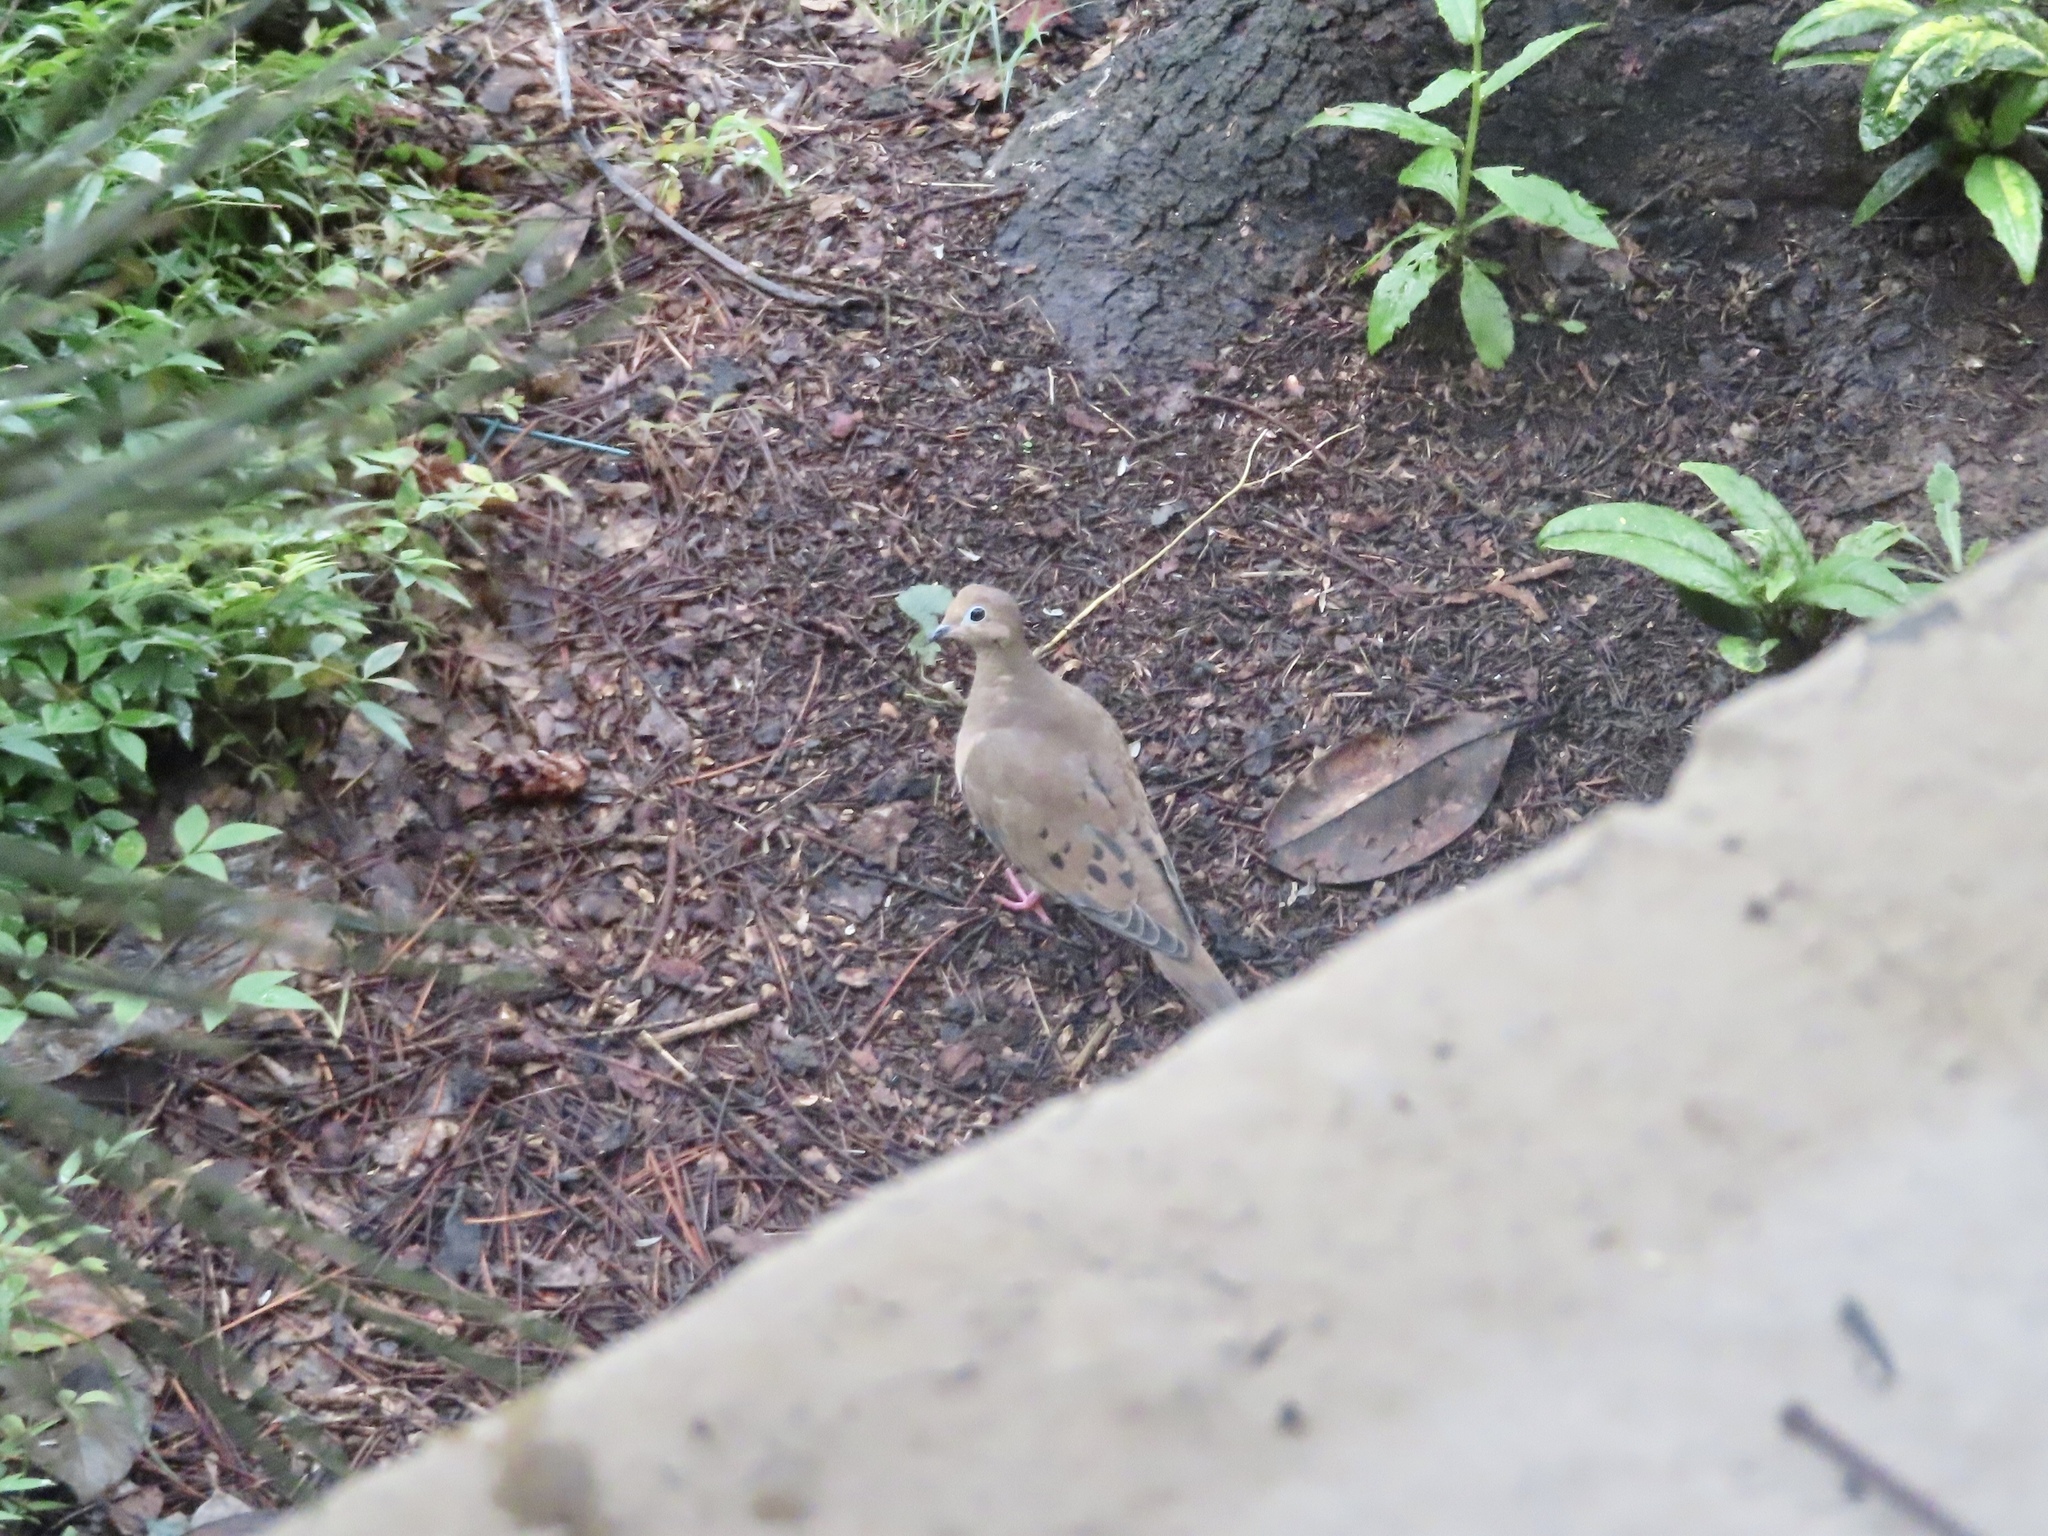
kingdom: Animalia
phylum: Chordata
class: Aves
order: Columbiformes
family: Columbidae
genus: Zenaida
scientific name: Zenaida macroura
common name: Mourning dove
